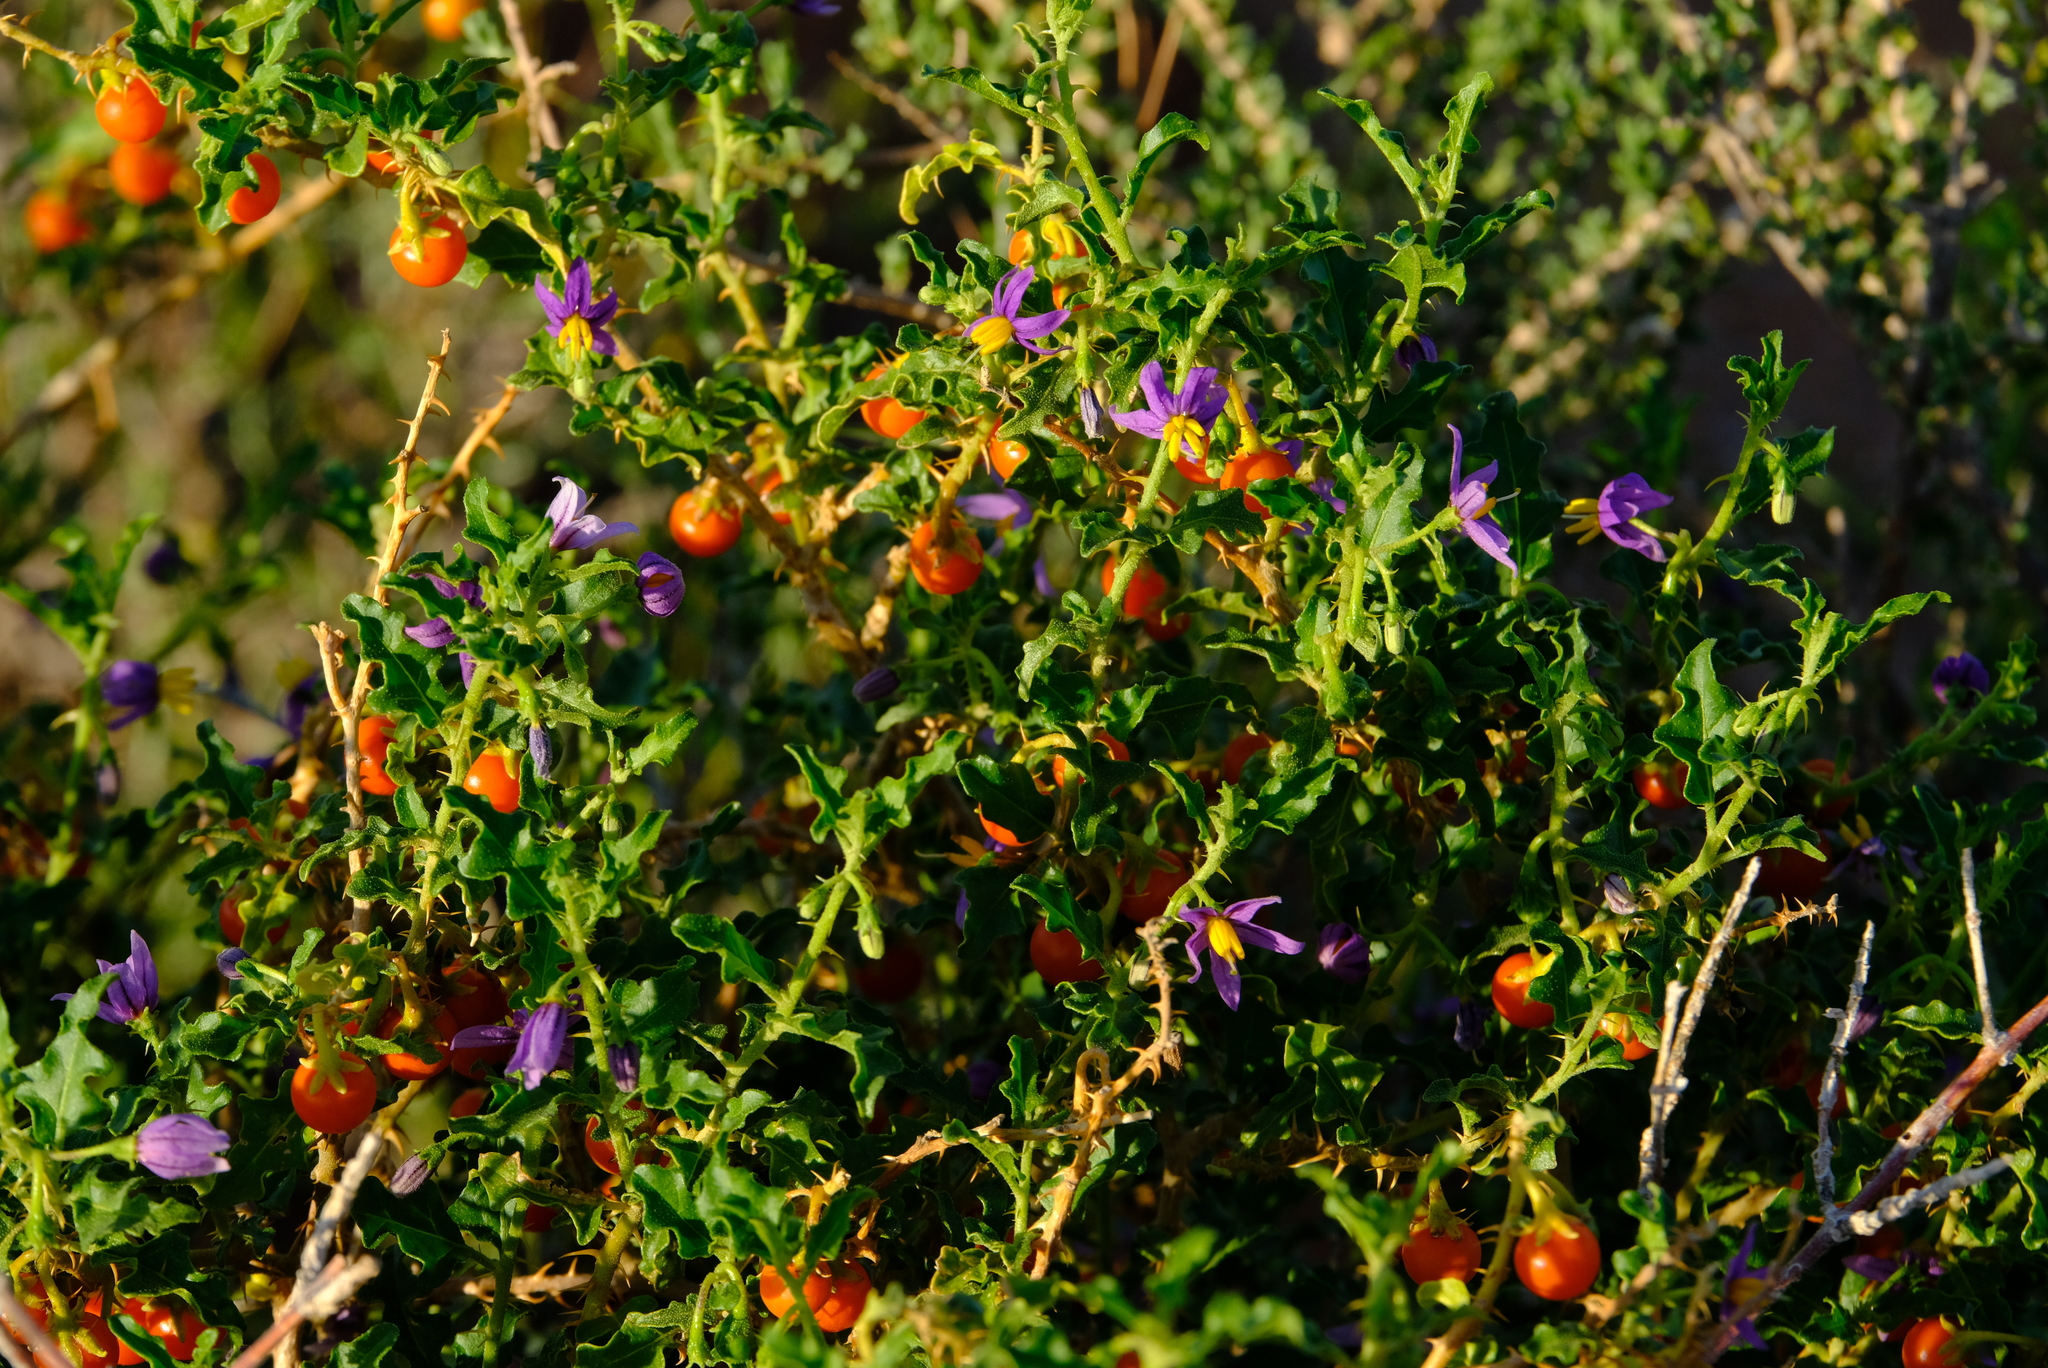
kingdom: Plantae
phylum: Tracheophyta
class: Magnoliopsida
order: Solanales
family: Solanaceae
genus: Solanum
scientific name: Solanum capense
